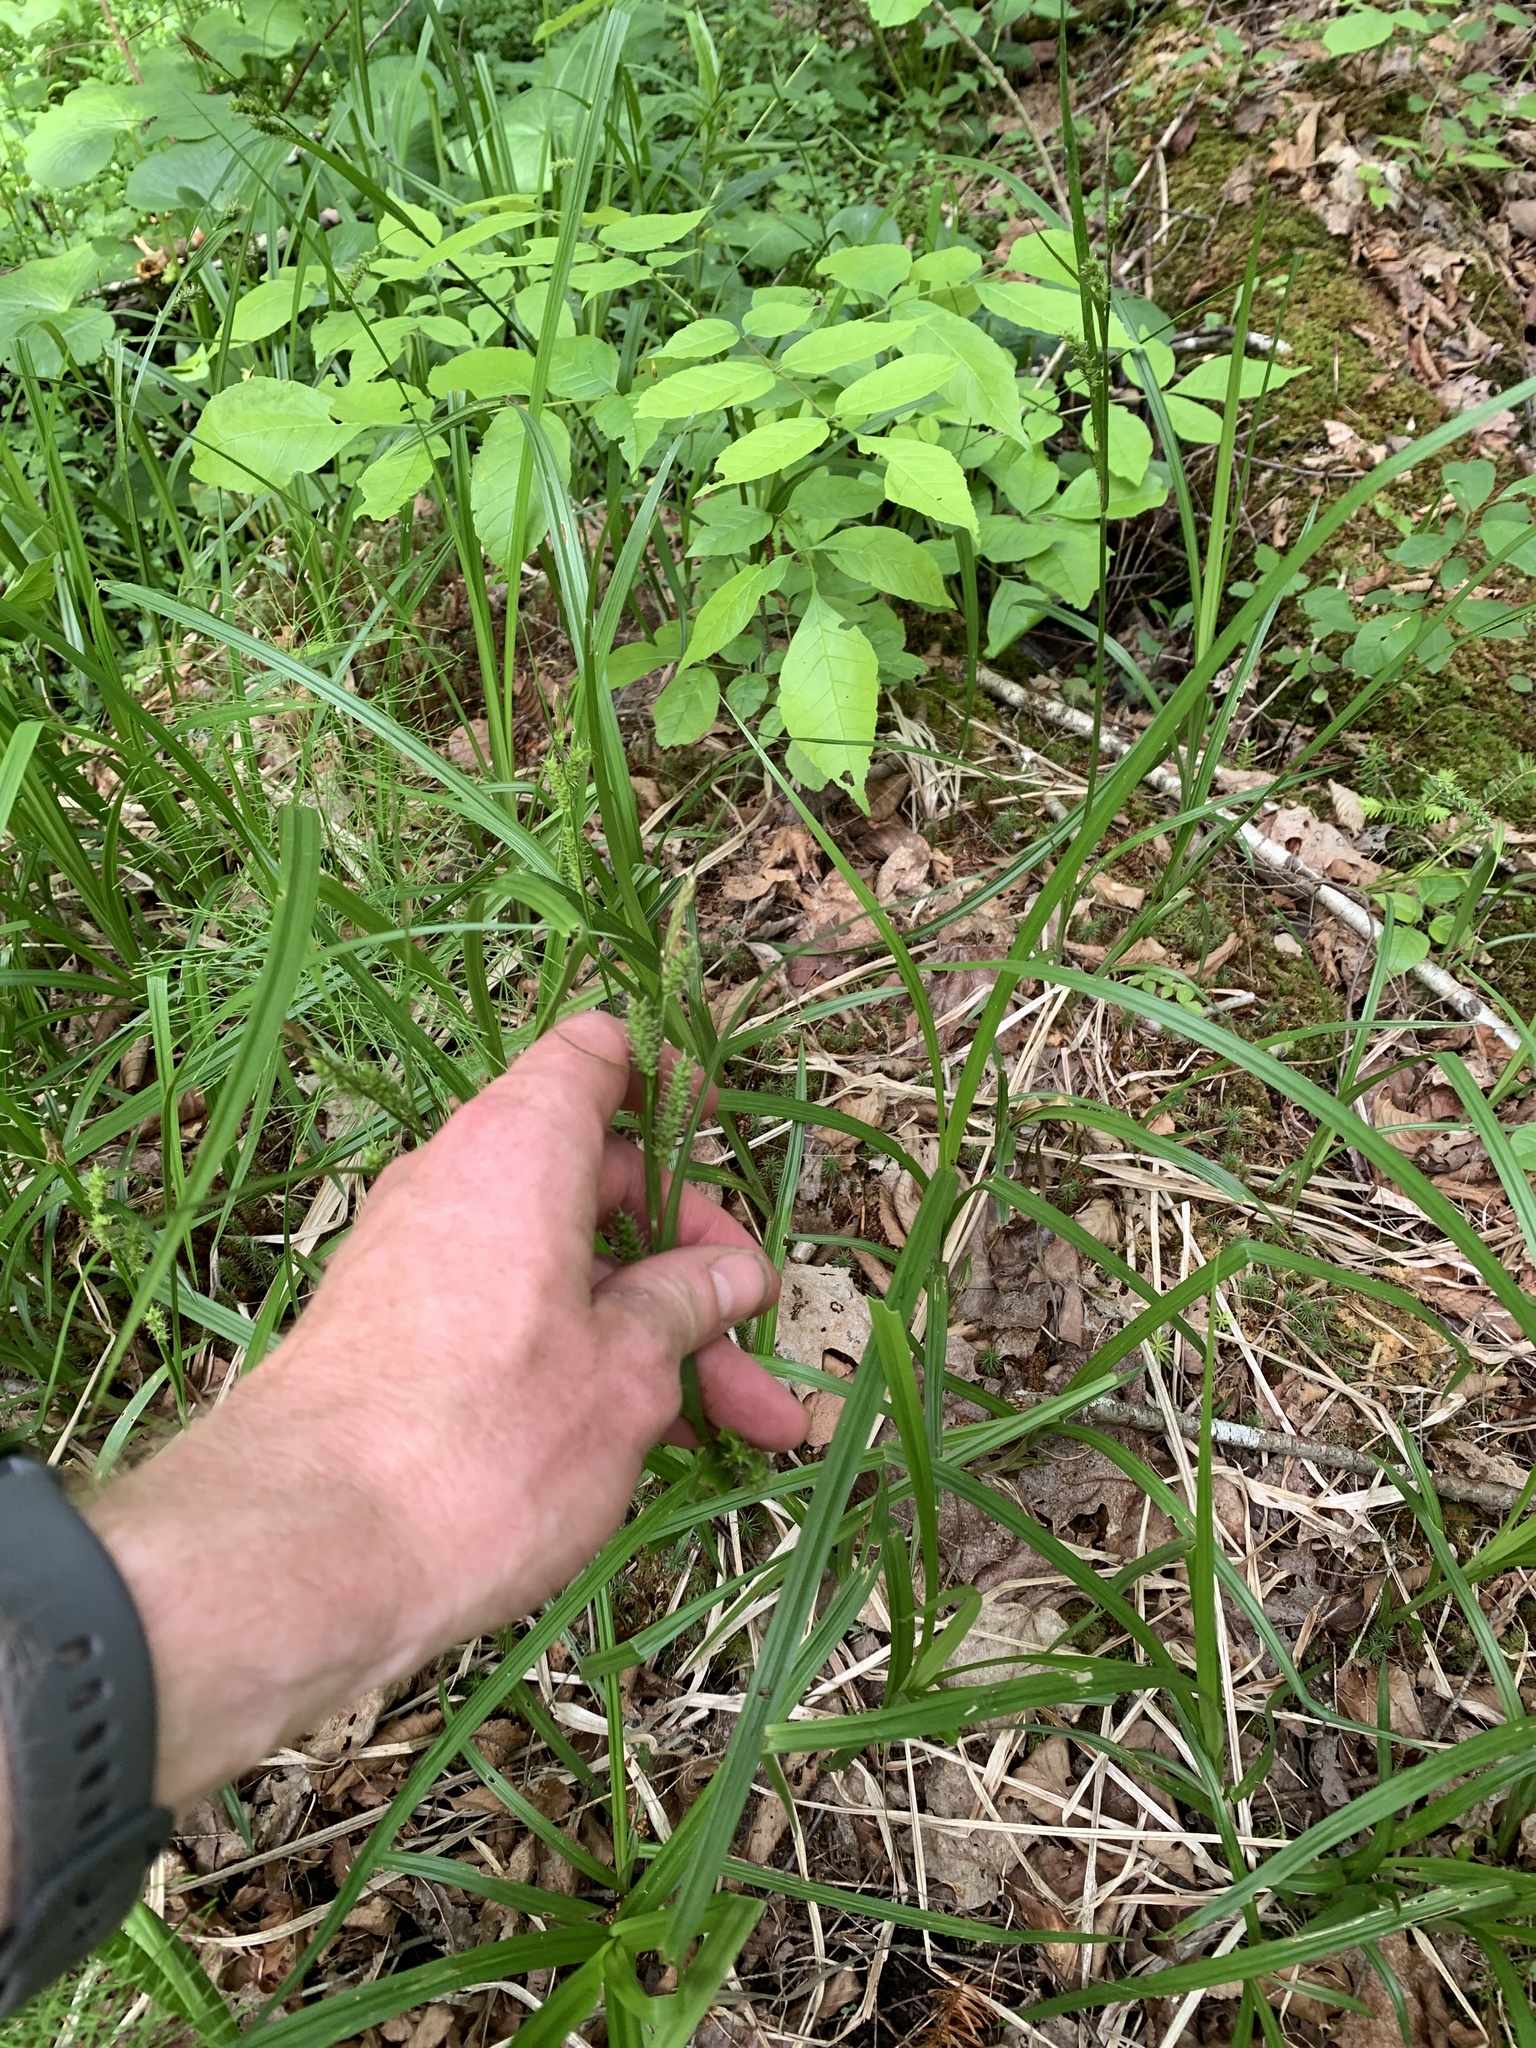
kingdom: Plantae
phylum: Tracheophyta
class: Liliopsida
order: Poales
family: Cyperaceae
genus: Carex
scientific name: Carex scabrata
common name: Eastern rough sedge
